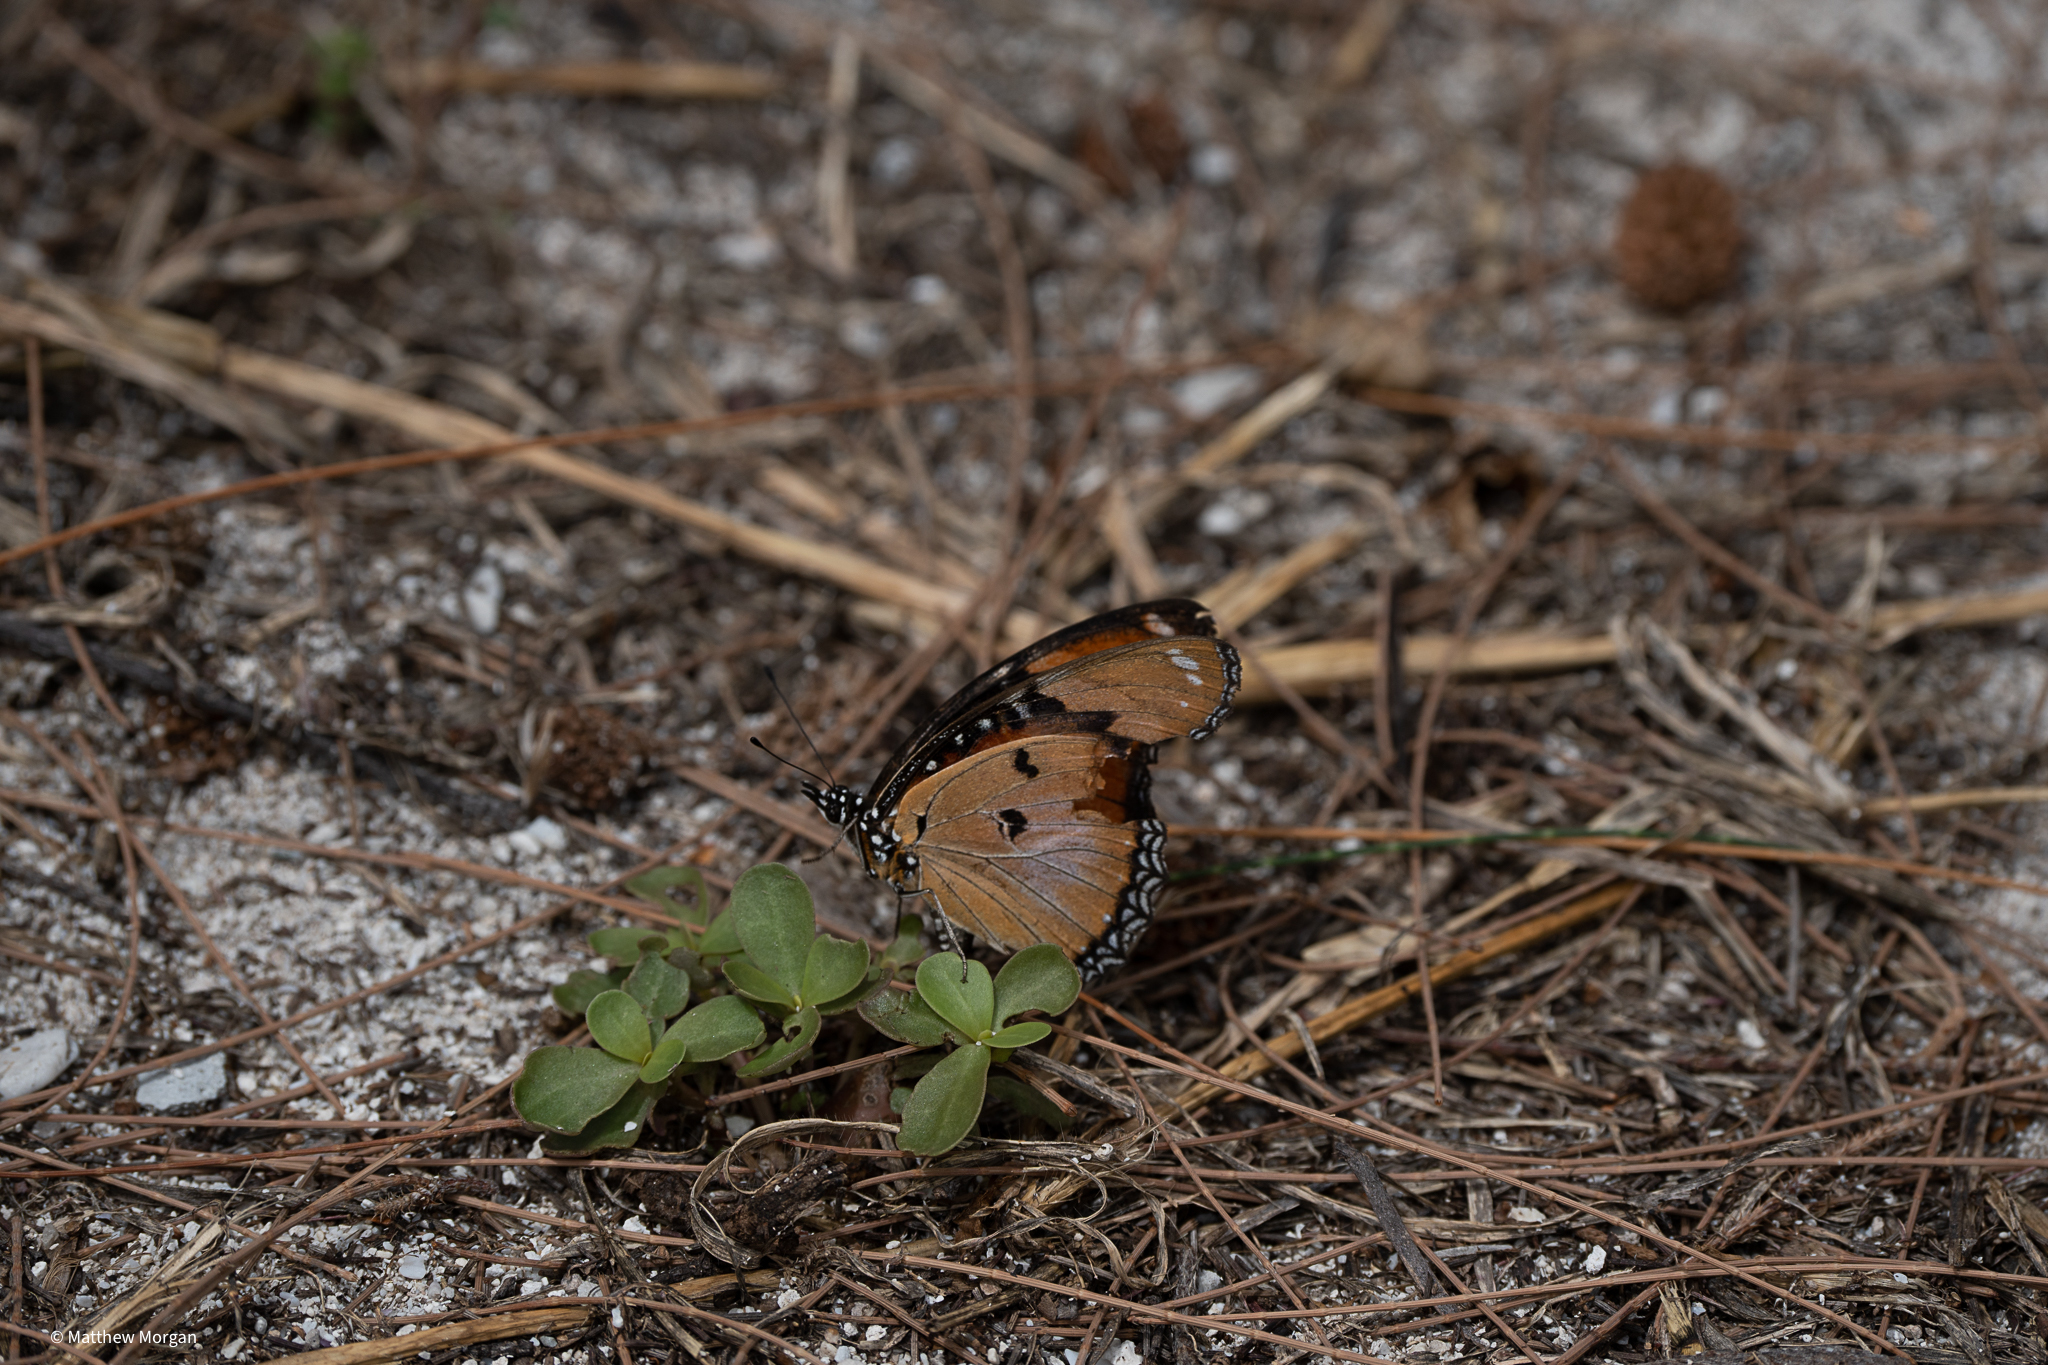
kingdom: Animalia
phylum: Arthropoda
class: Insecta
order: Lepidoptera
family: Nymphalidae
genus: Hypolimnas
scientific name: Hypolimnas misippus
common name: False plain tiger
